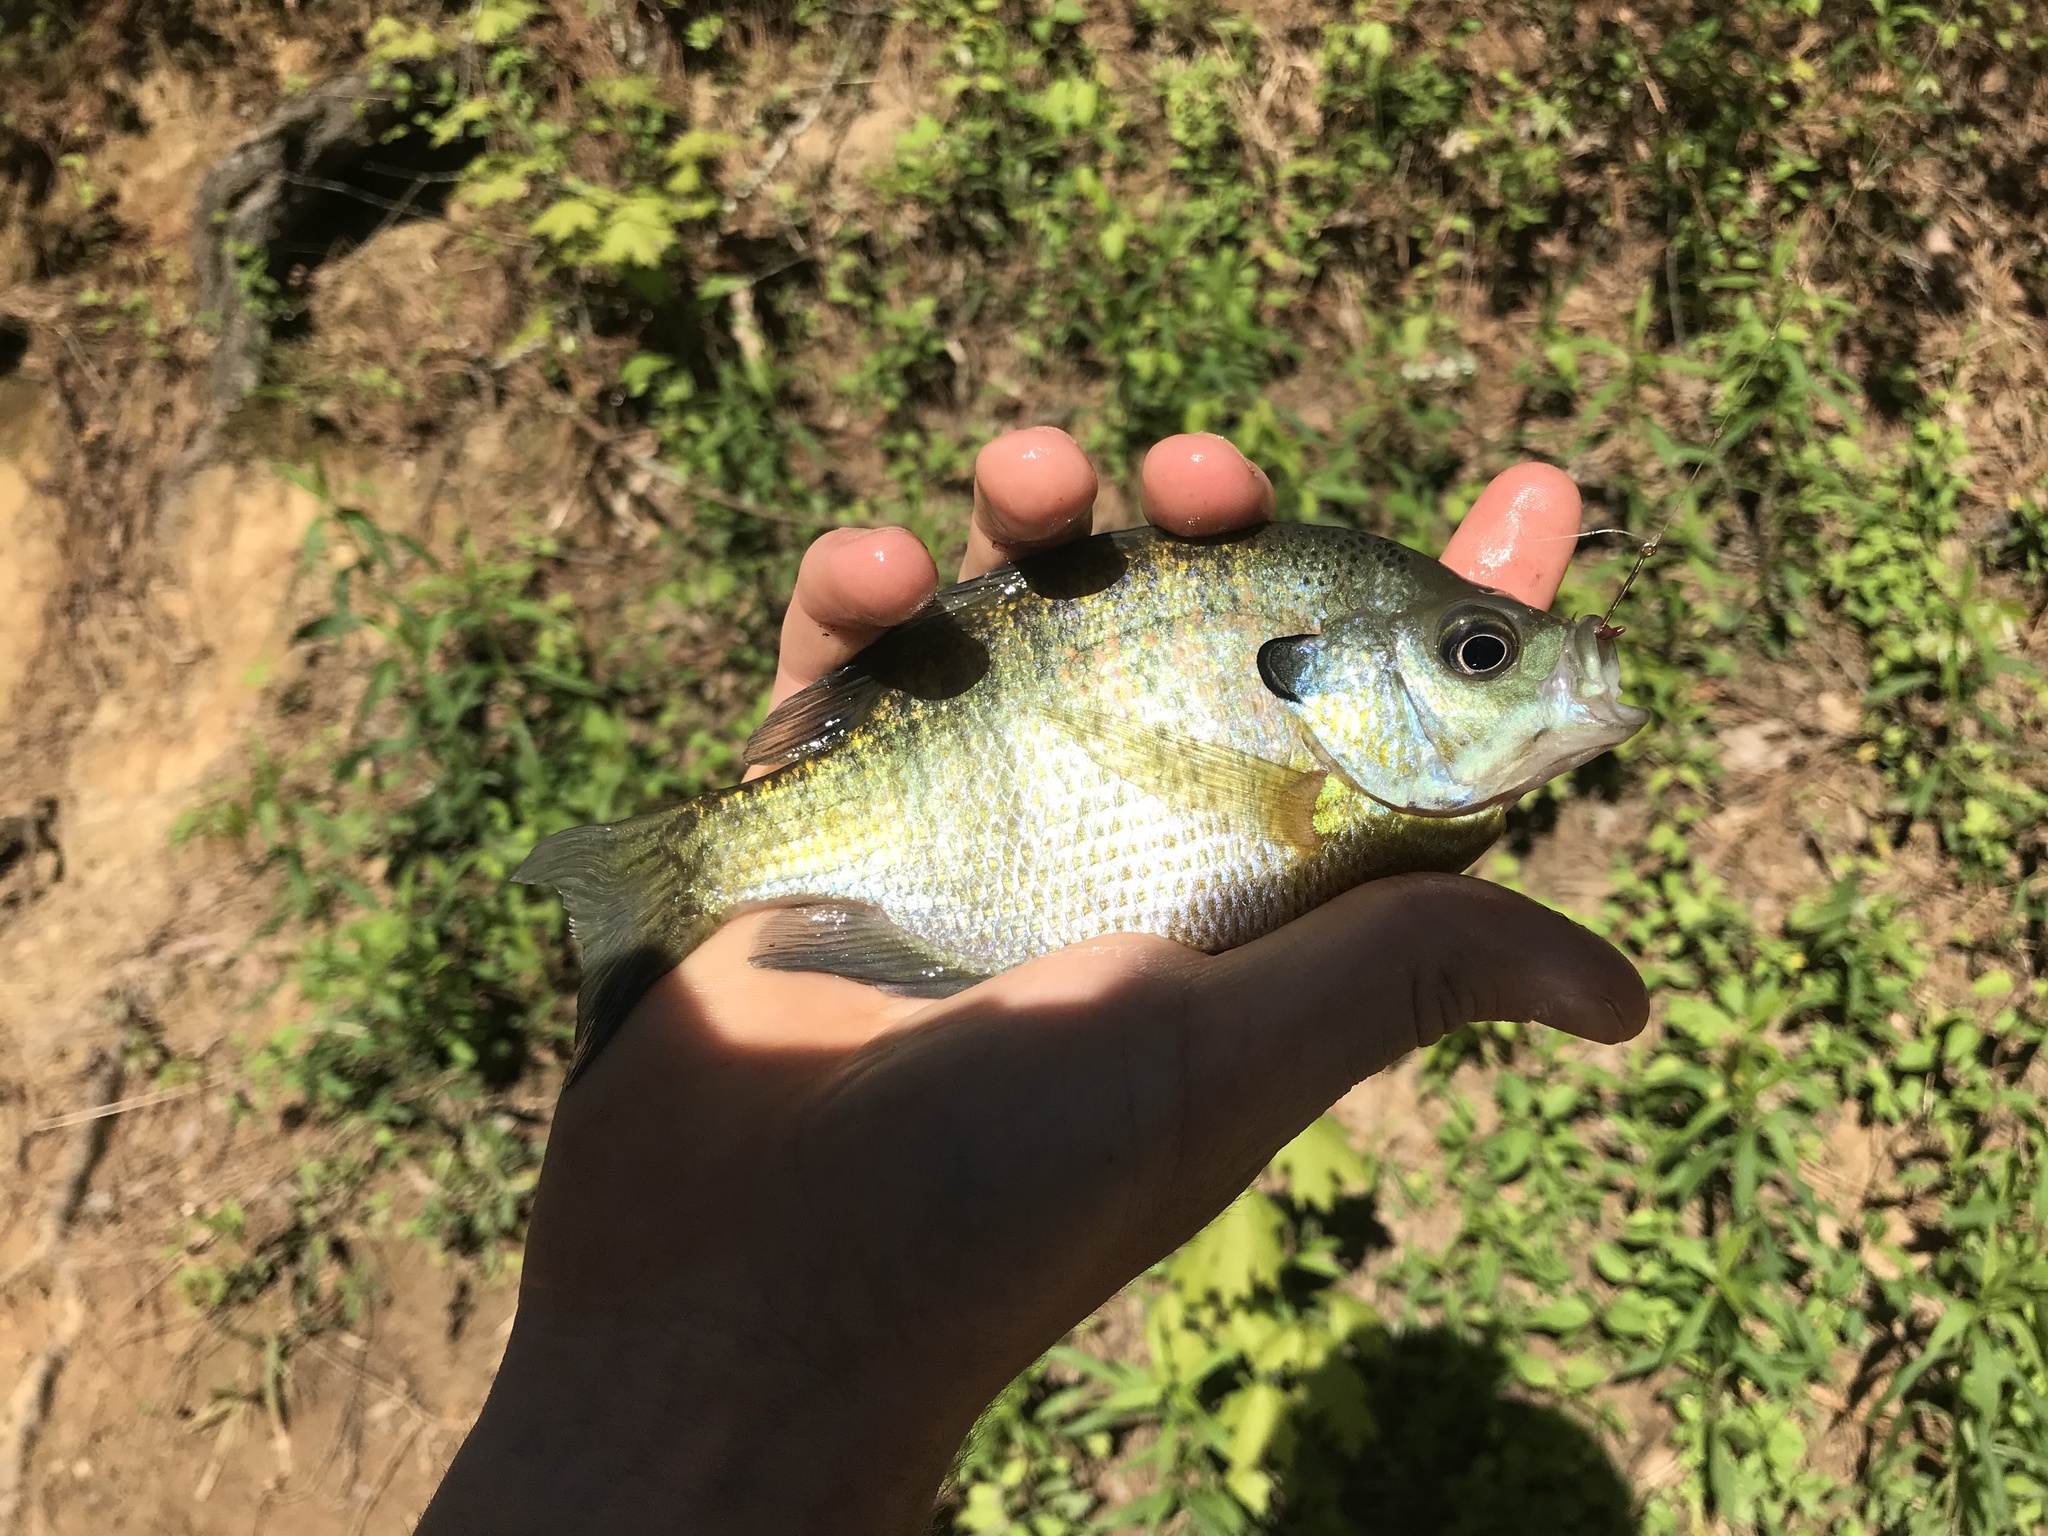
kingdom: Animalia
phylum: Chordata
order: Perciformes
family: Centrarchidae
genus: Lepomis
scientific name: Lepomis macrochirus
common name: Bluegill
